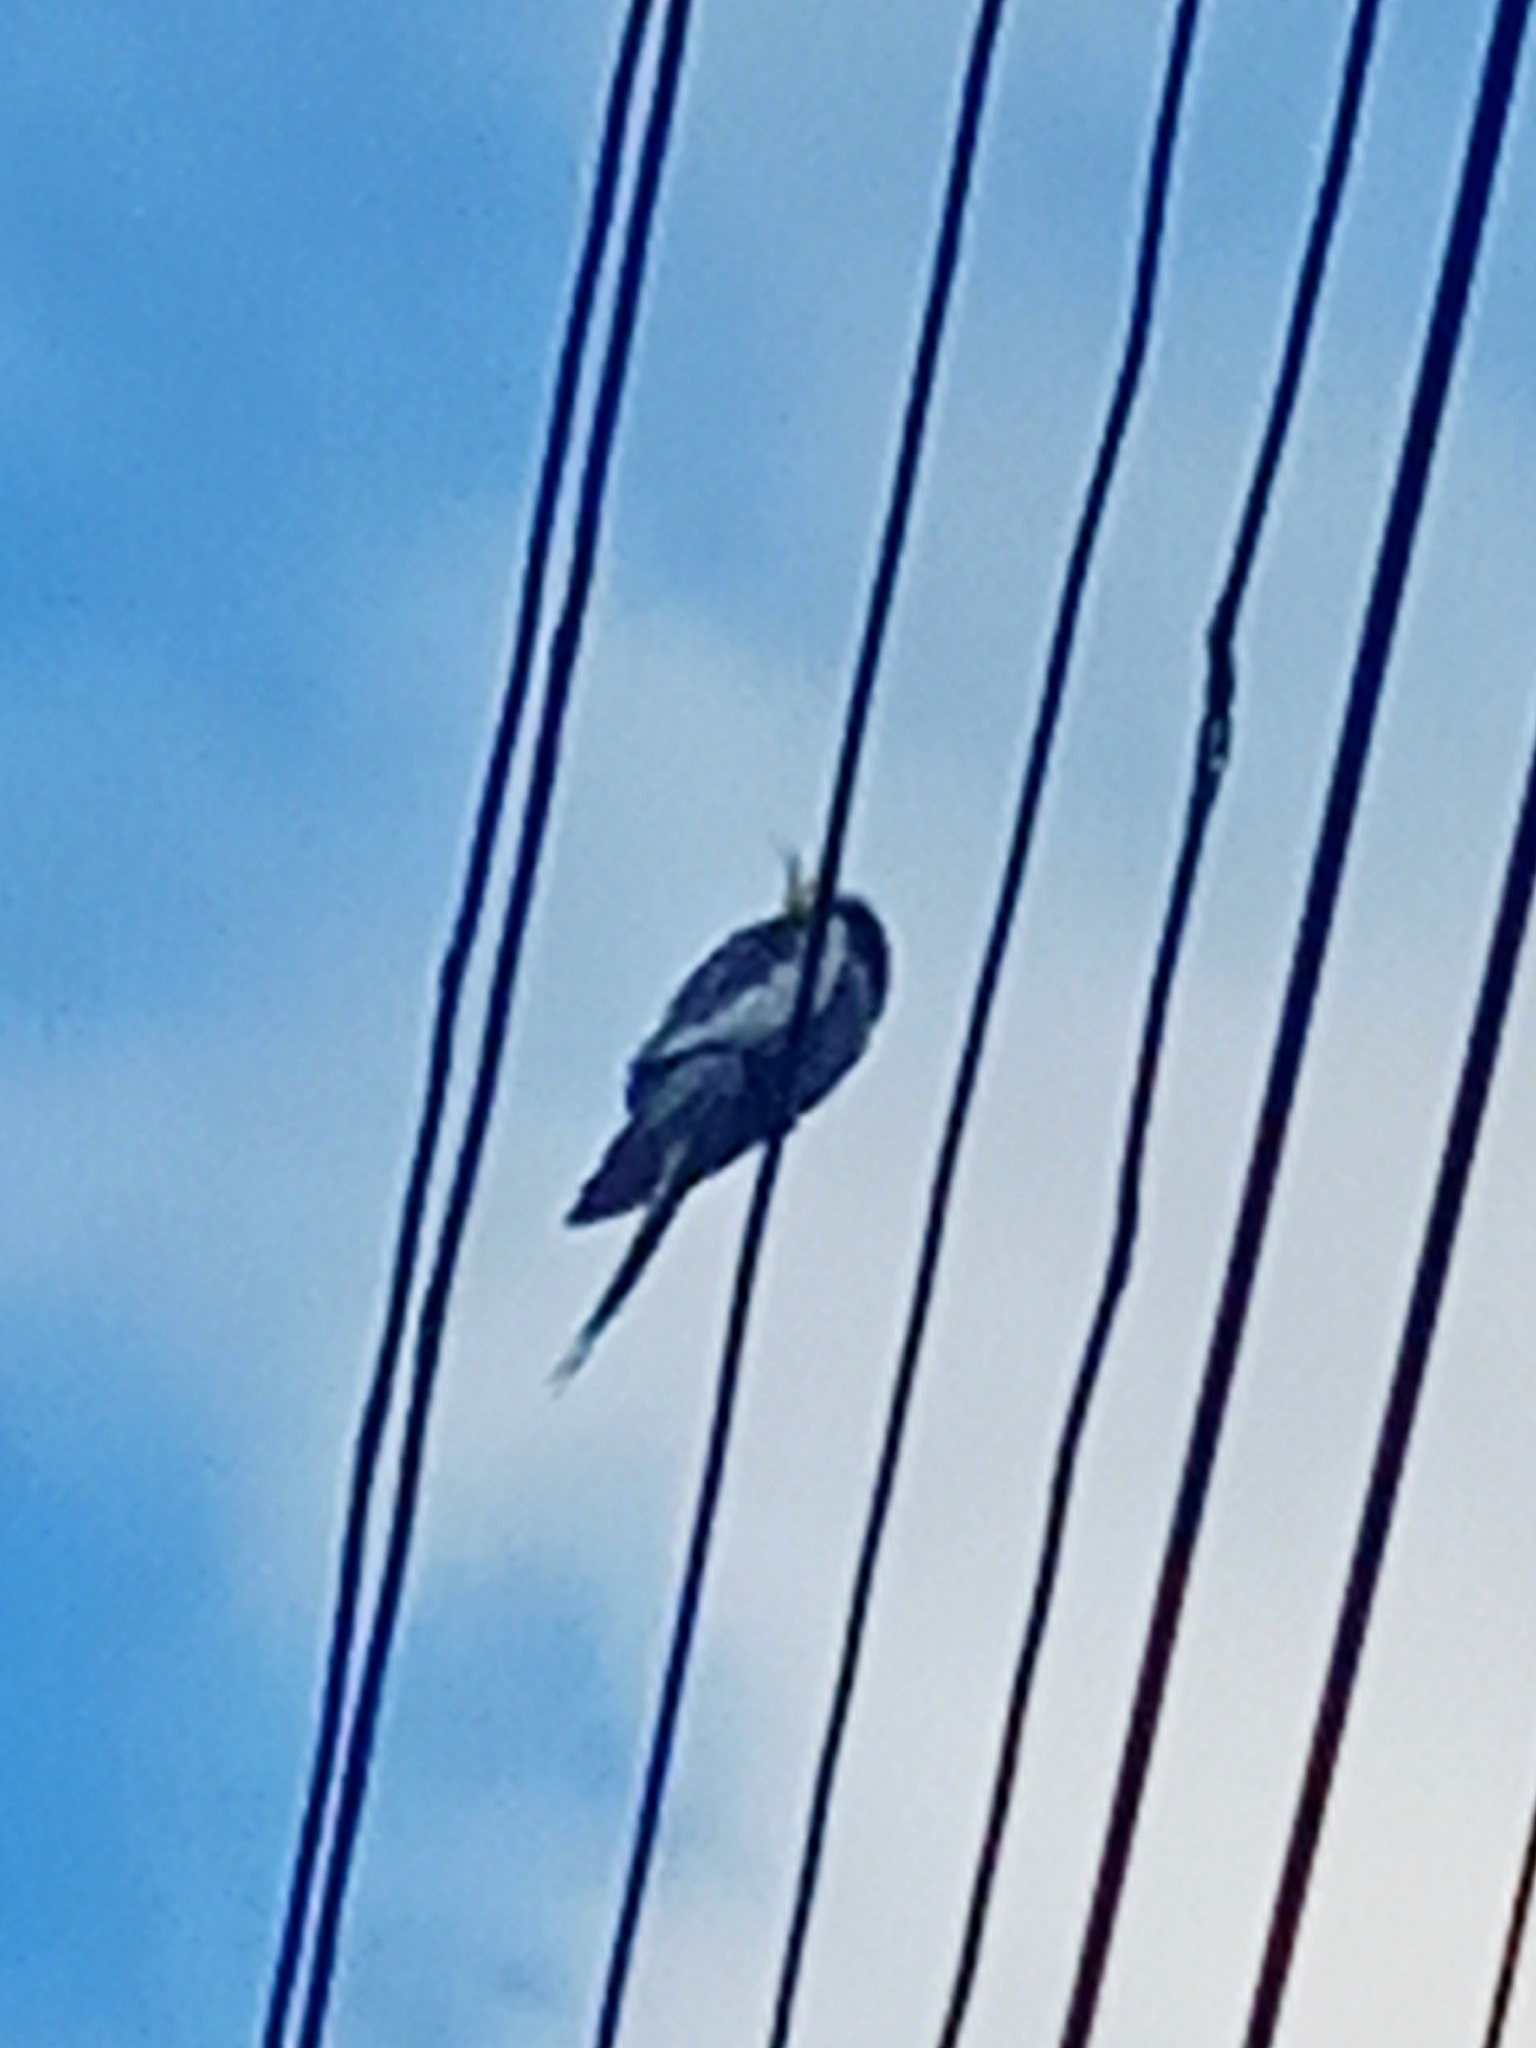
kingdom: Animalia
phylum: Chordata
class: Aves
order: Psittaciformes
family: Psittacidae
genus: Nymphicus
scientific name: Nymphicus hollandicus
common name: Cockatiel
